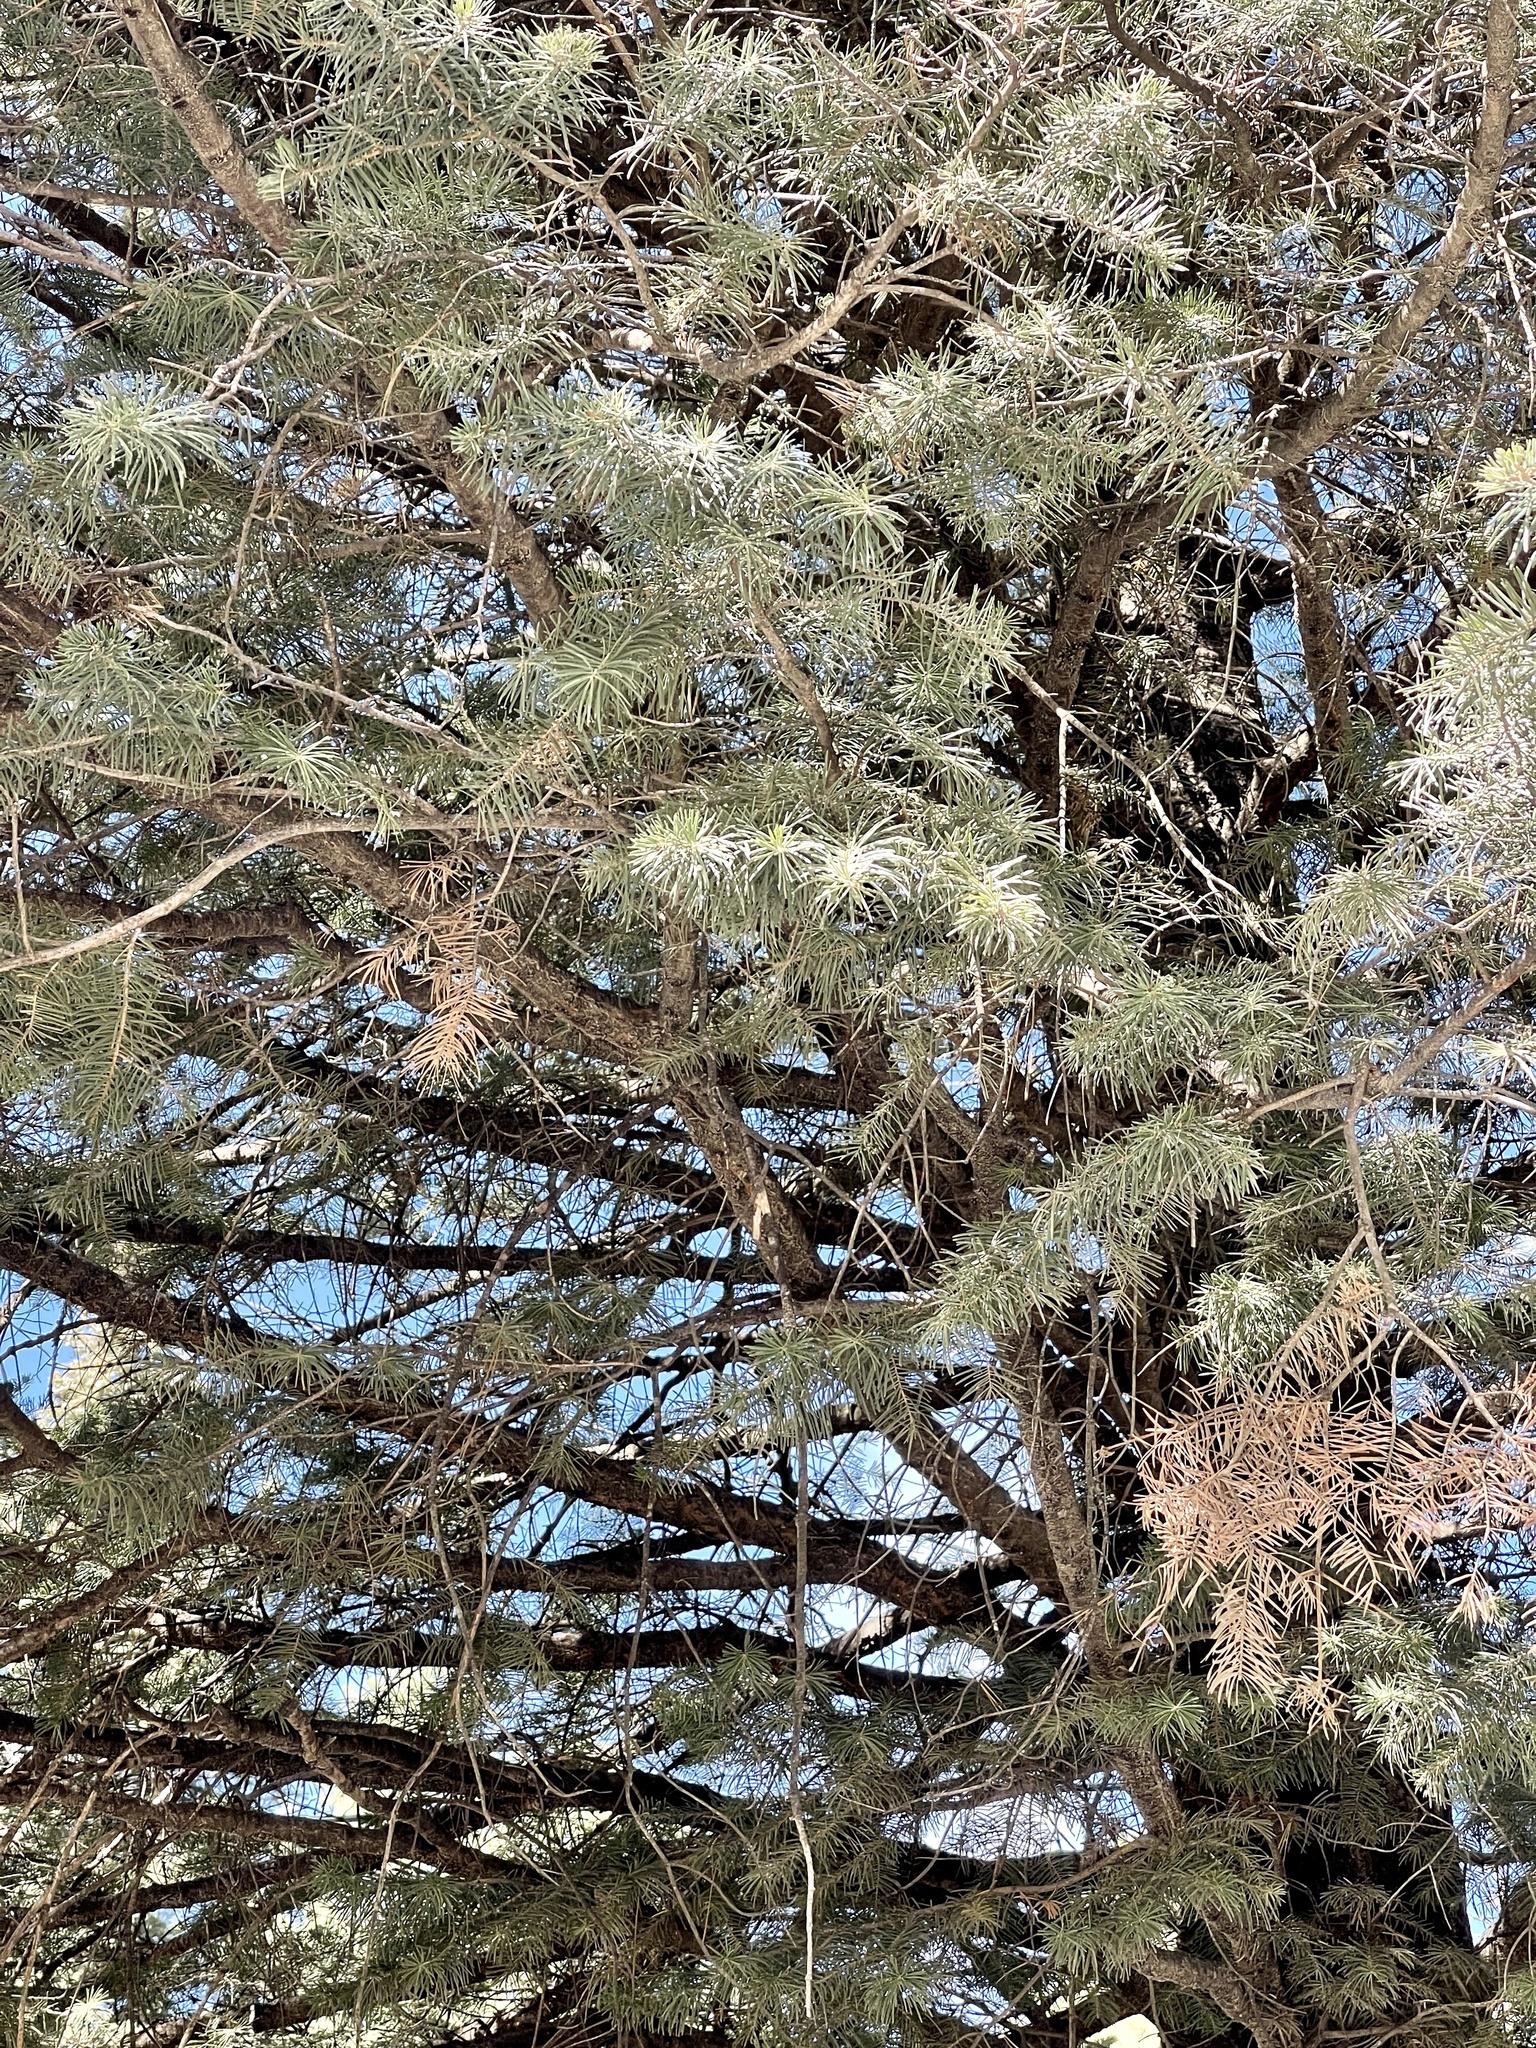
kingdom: Plantae
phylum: Tracheophyta
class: Pinopsida
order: Pinales
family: Pinaceae
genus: Abies
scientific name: Abies concolor
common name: Colorado fir
